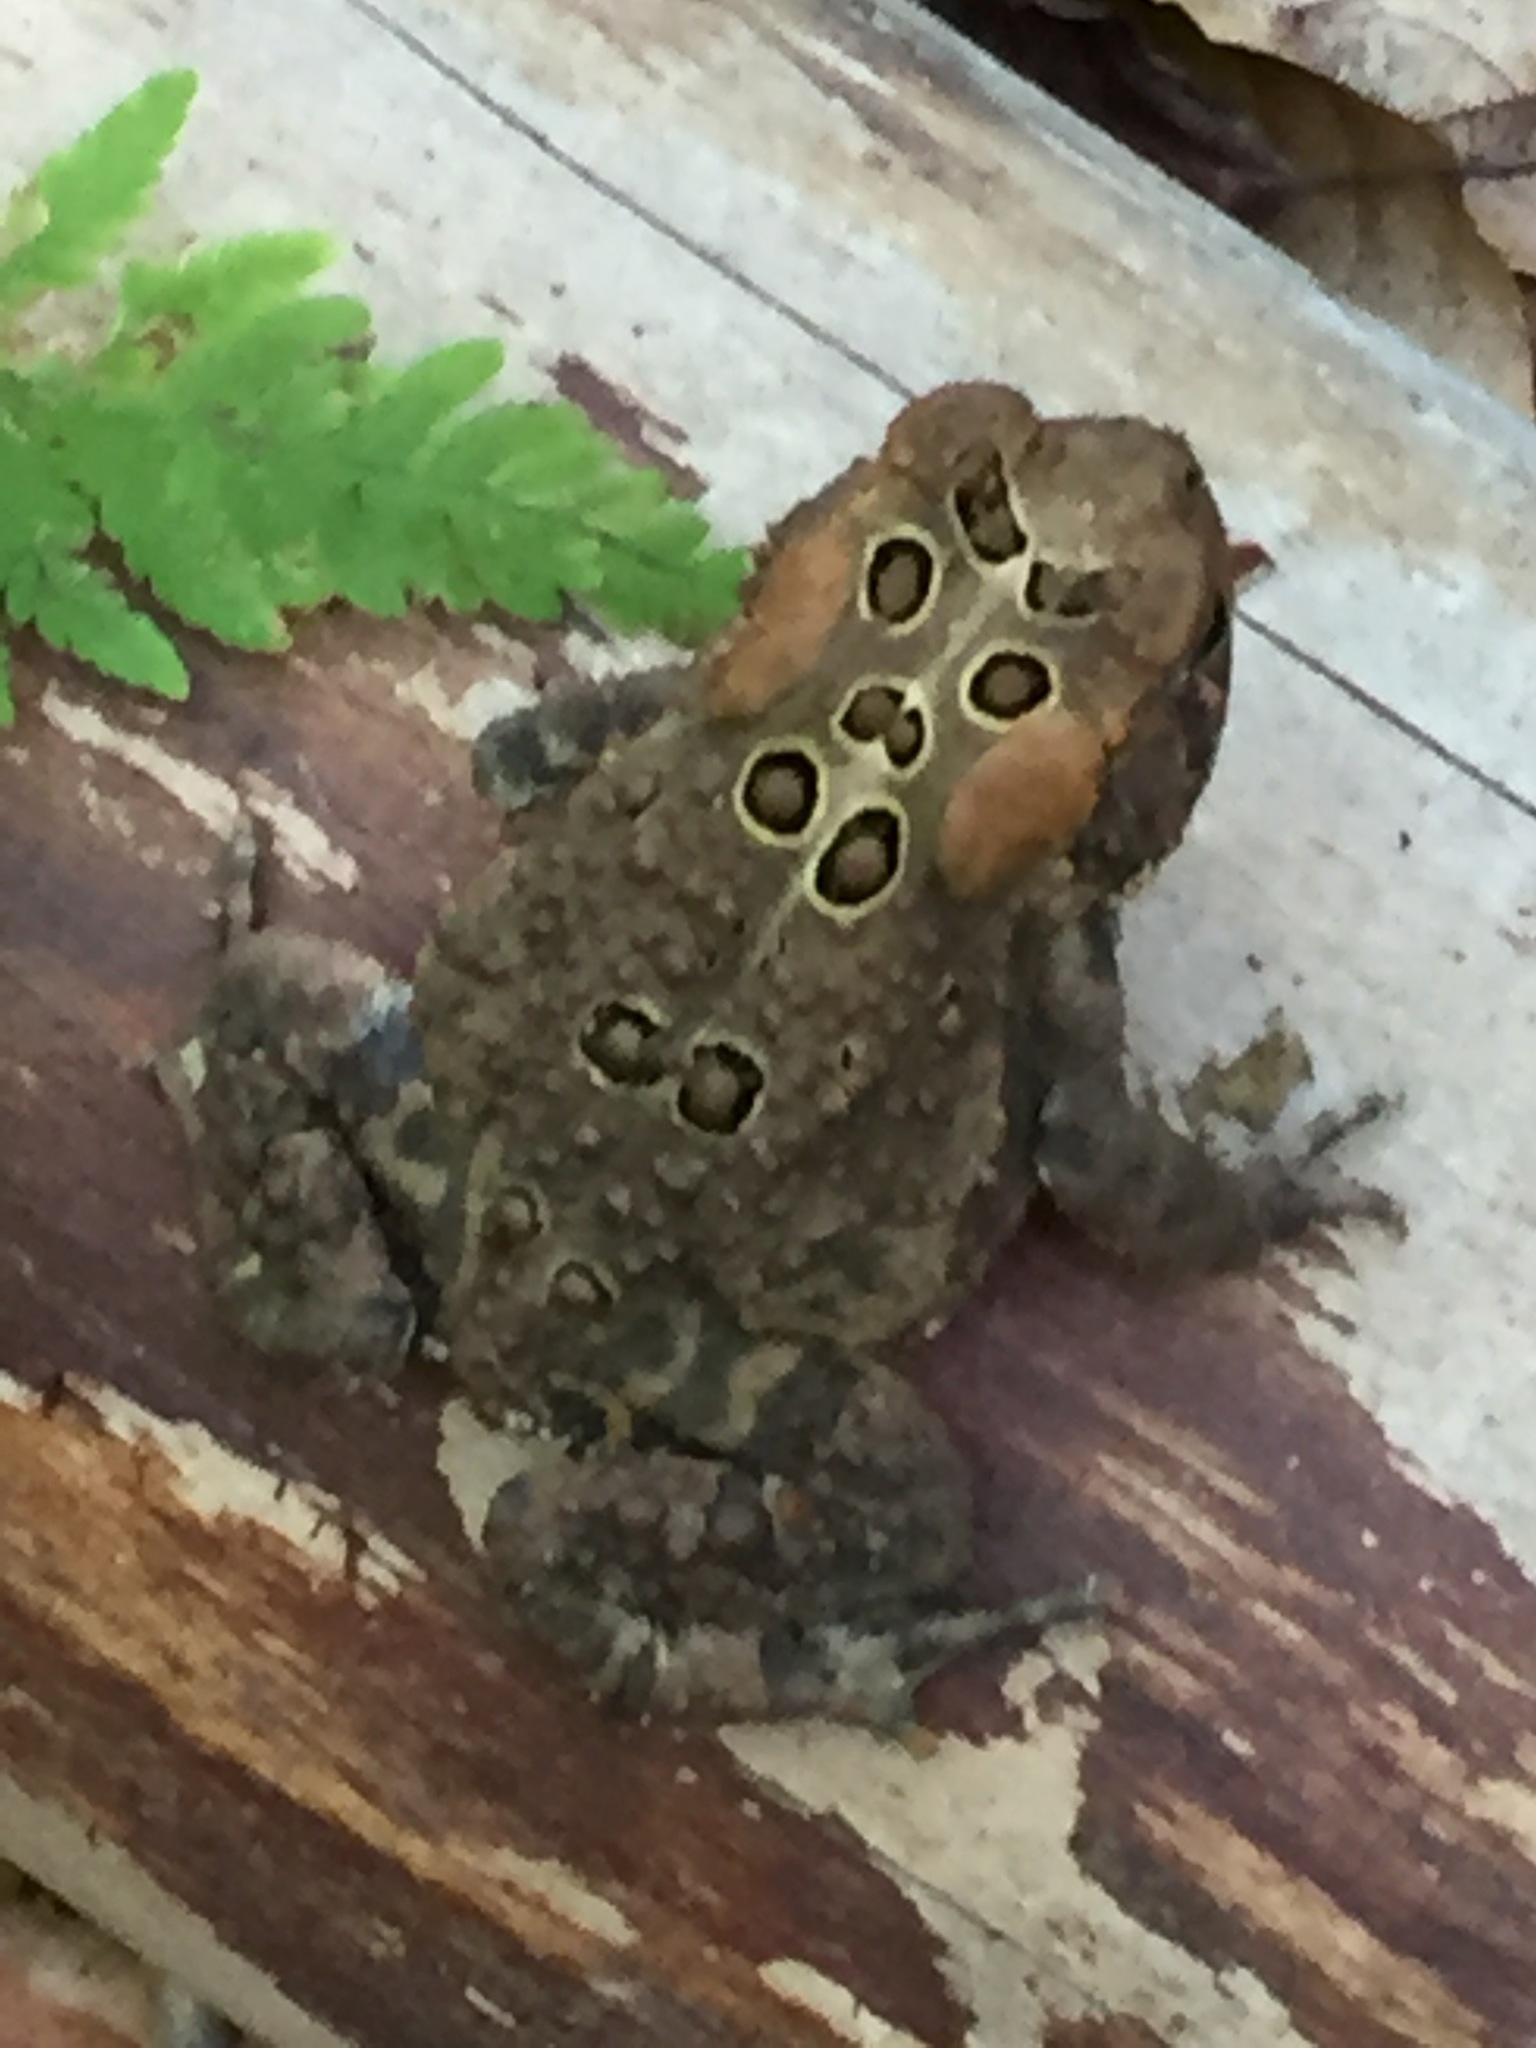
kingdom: Animalia
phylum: Chordata
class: Amphibia
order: Anura
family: Bufonidae
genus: Anaxyrus
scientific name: Anaxyrus americanus
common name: American toad
